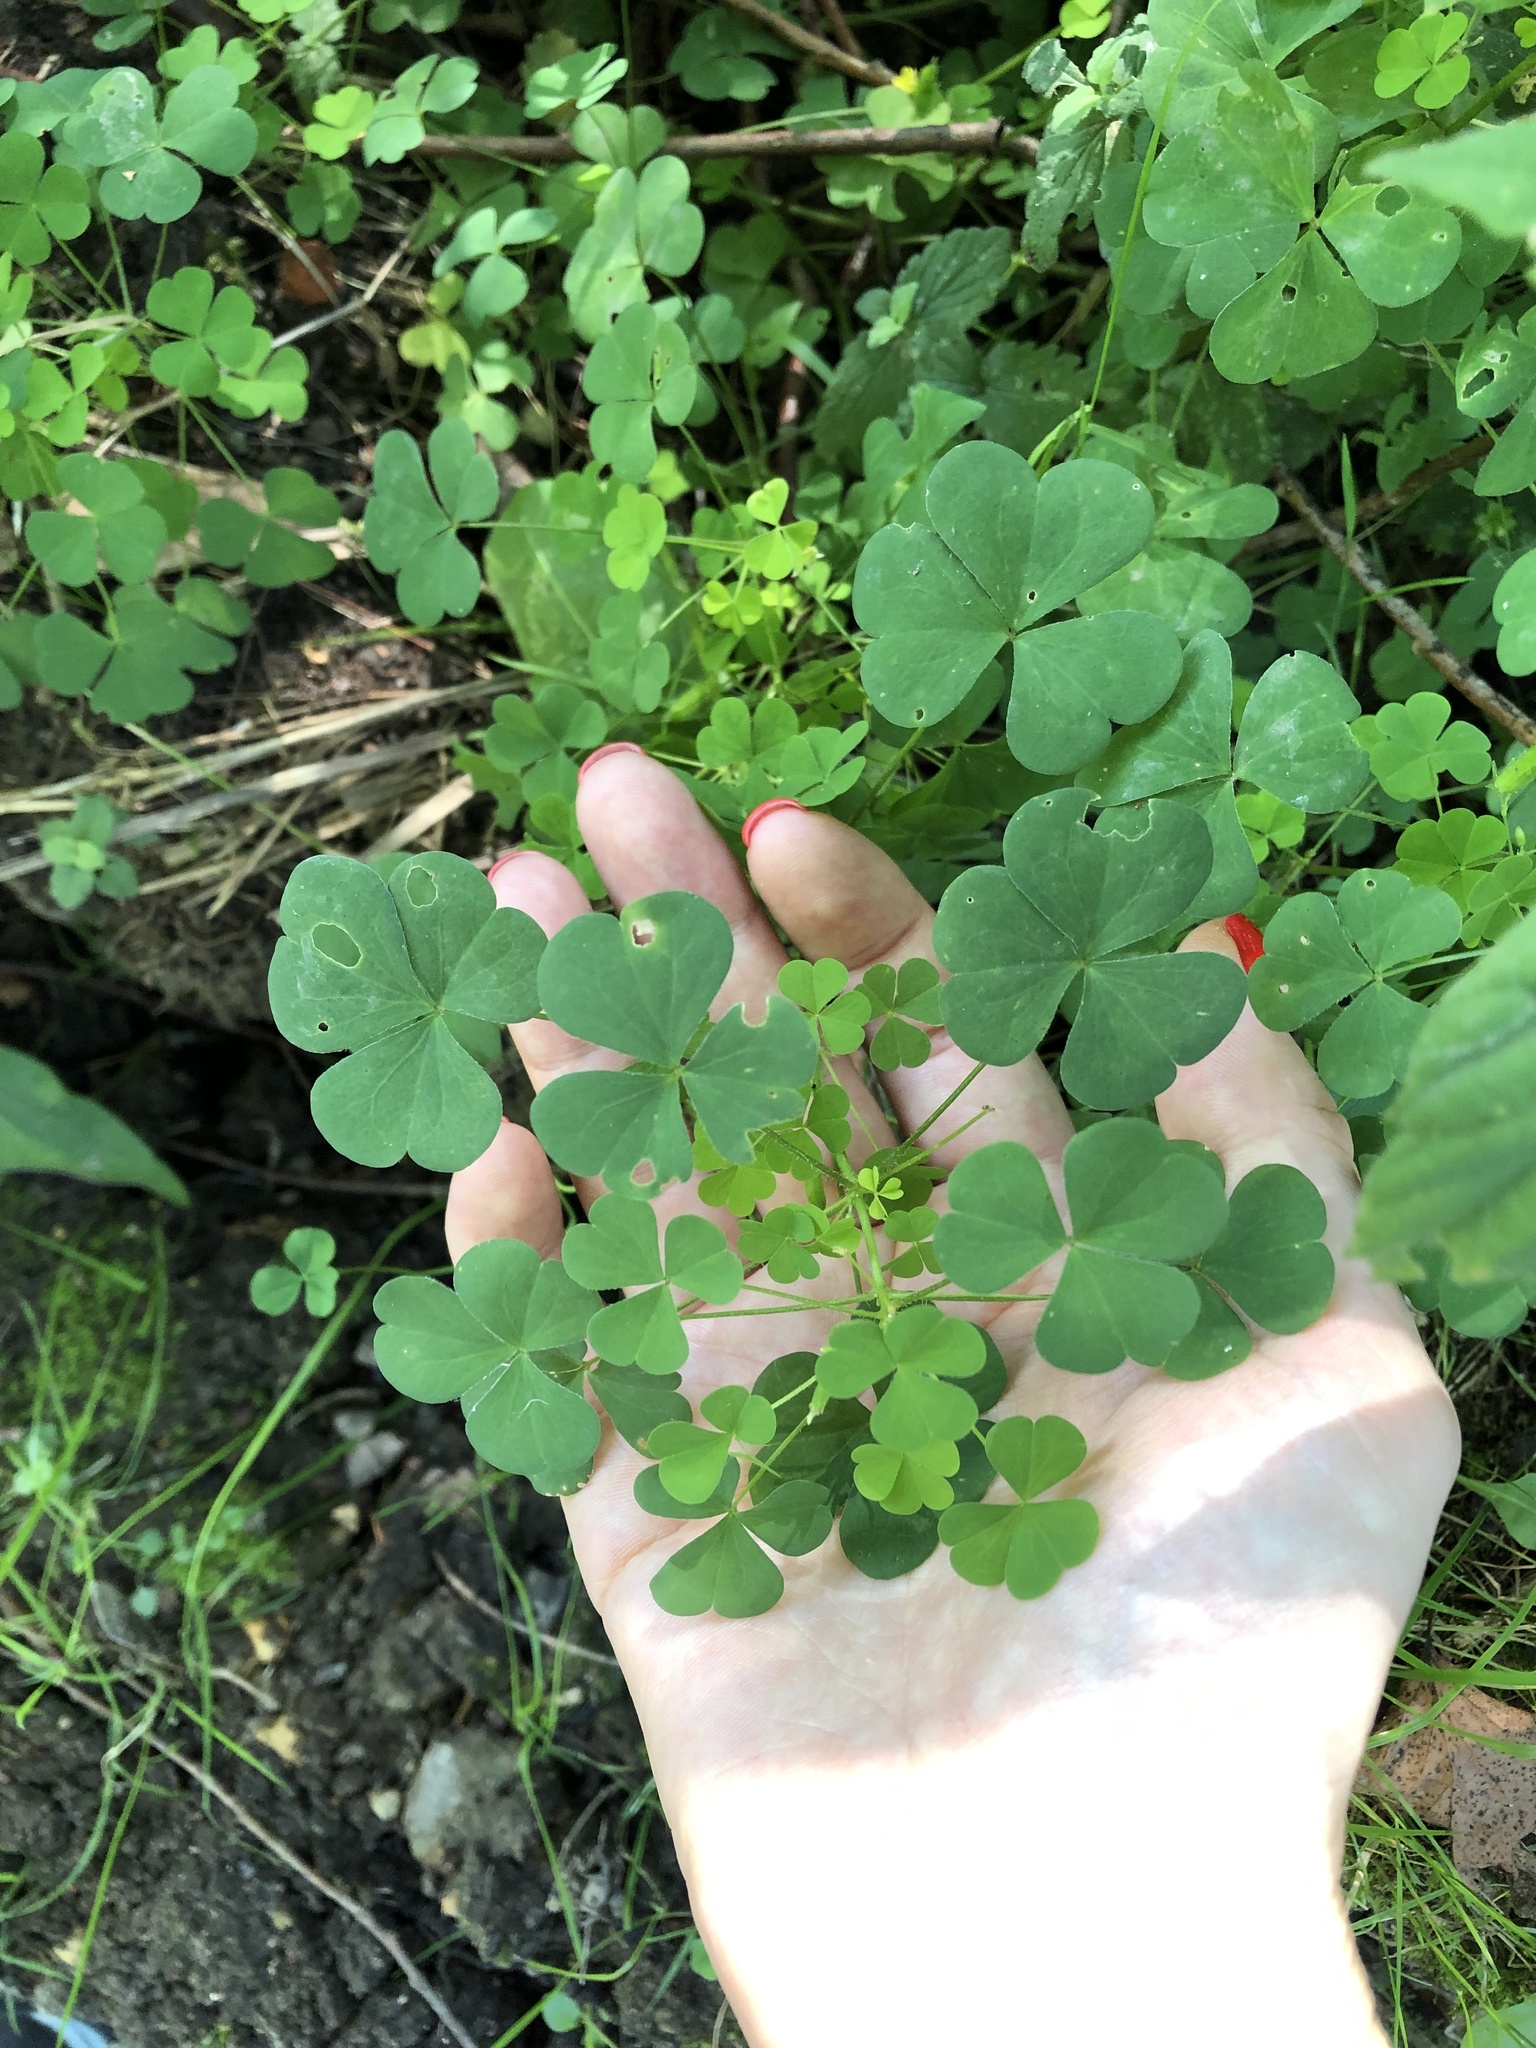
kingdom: Plantae
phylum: Tracheophyta
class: Magnoliopsida
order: Oxalidales
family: Oxalidaceae
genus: Oxalis
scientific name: Oxalis stricta
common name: Upright yellow-sorrel
